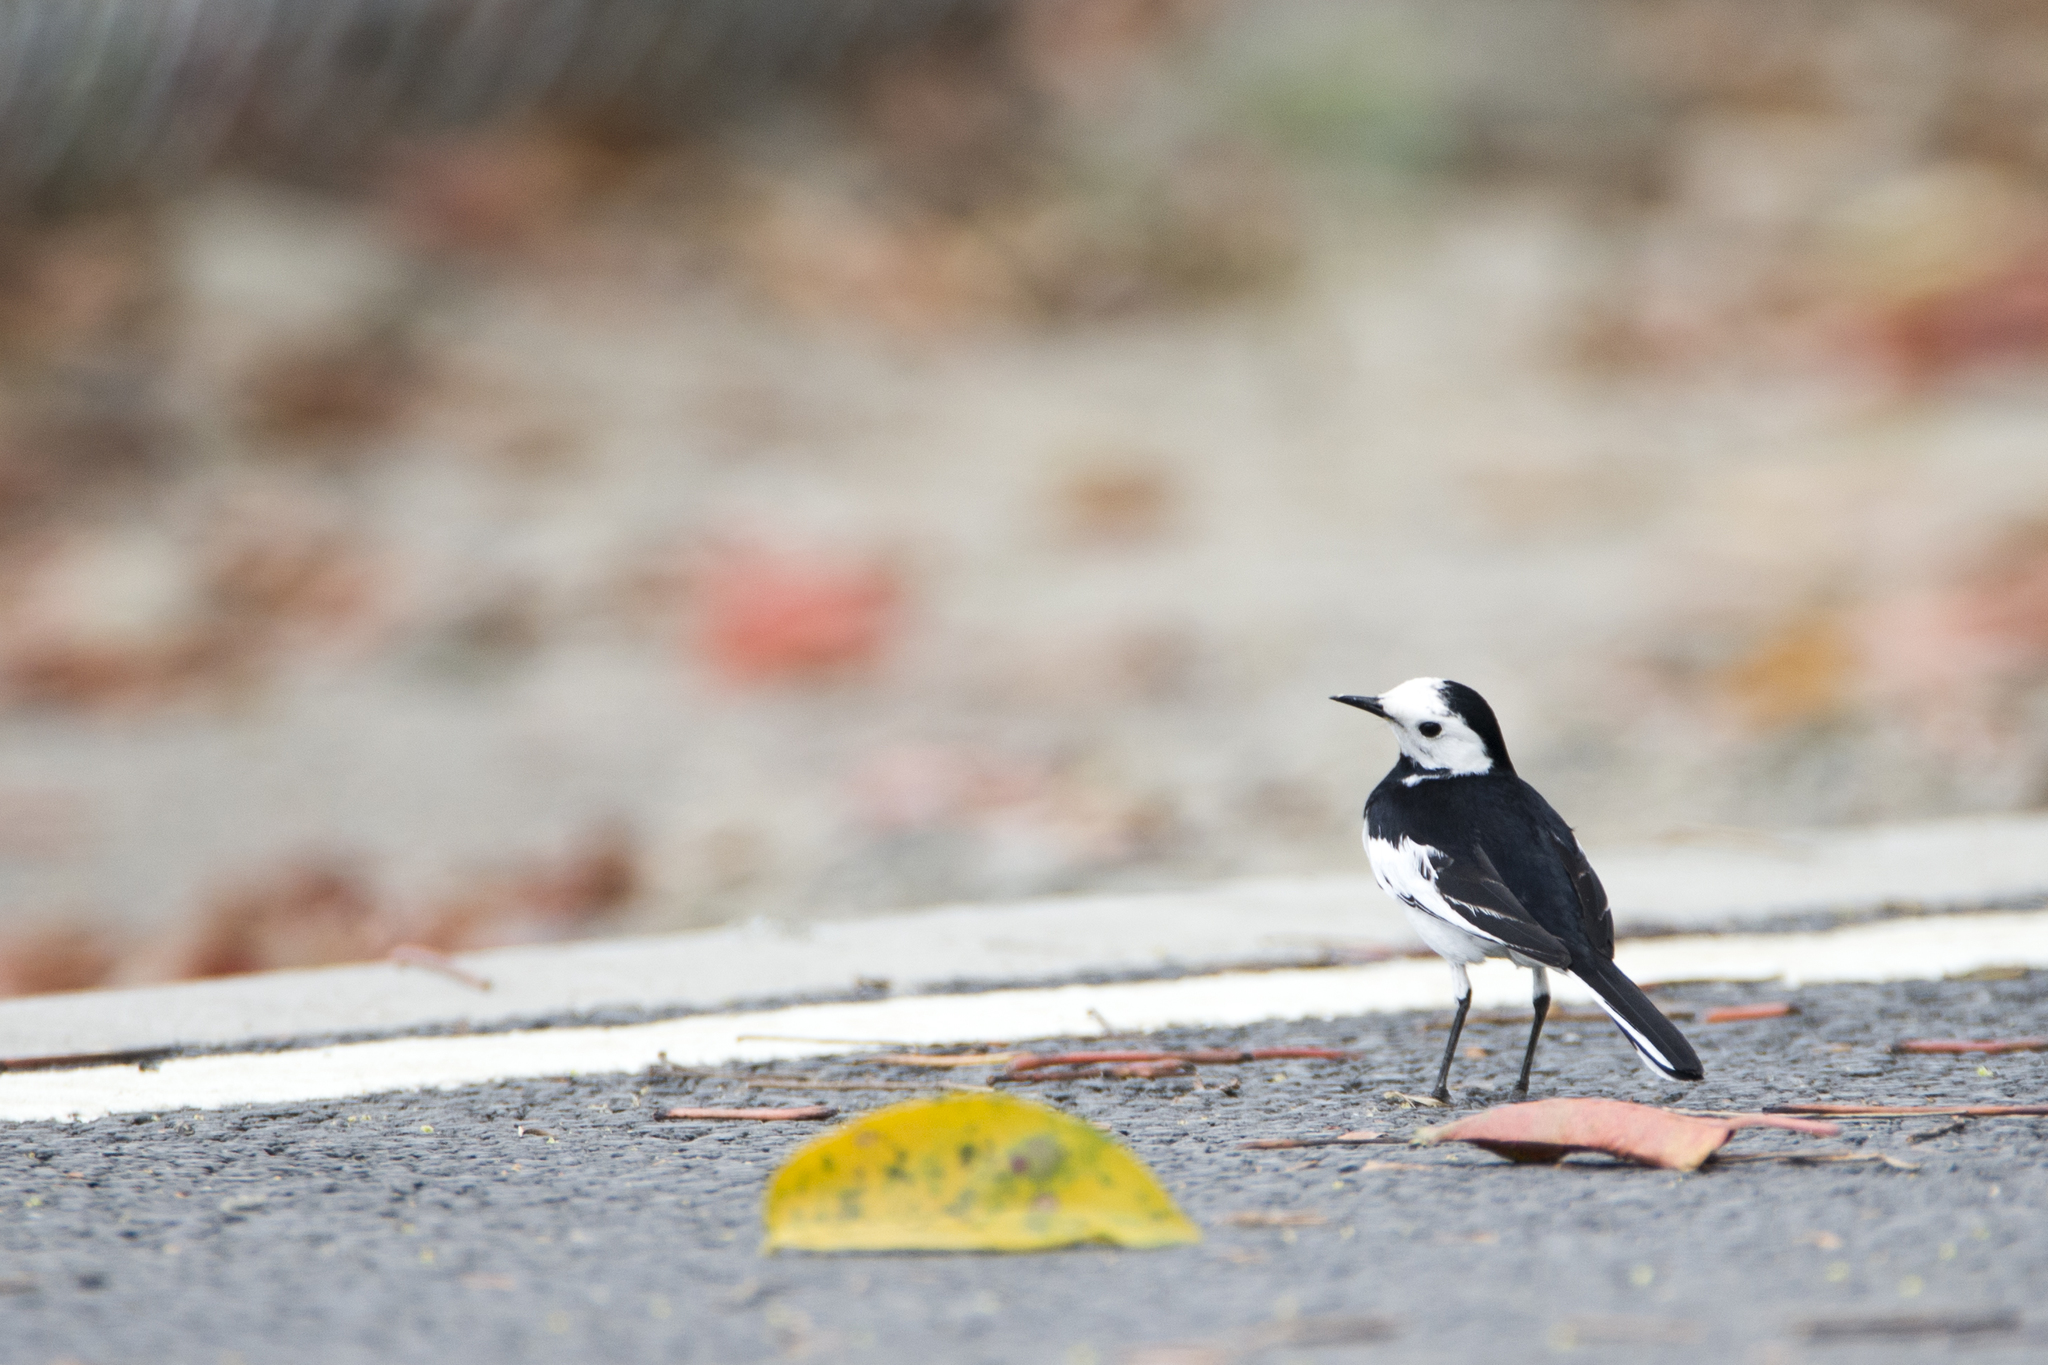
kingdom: Animalia
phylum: Chordata
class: Aves
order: Passeriformes
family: Motacillidae
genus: Motacilla
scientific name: Motacilla alba
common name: White wagtail
